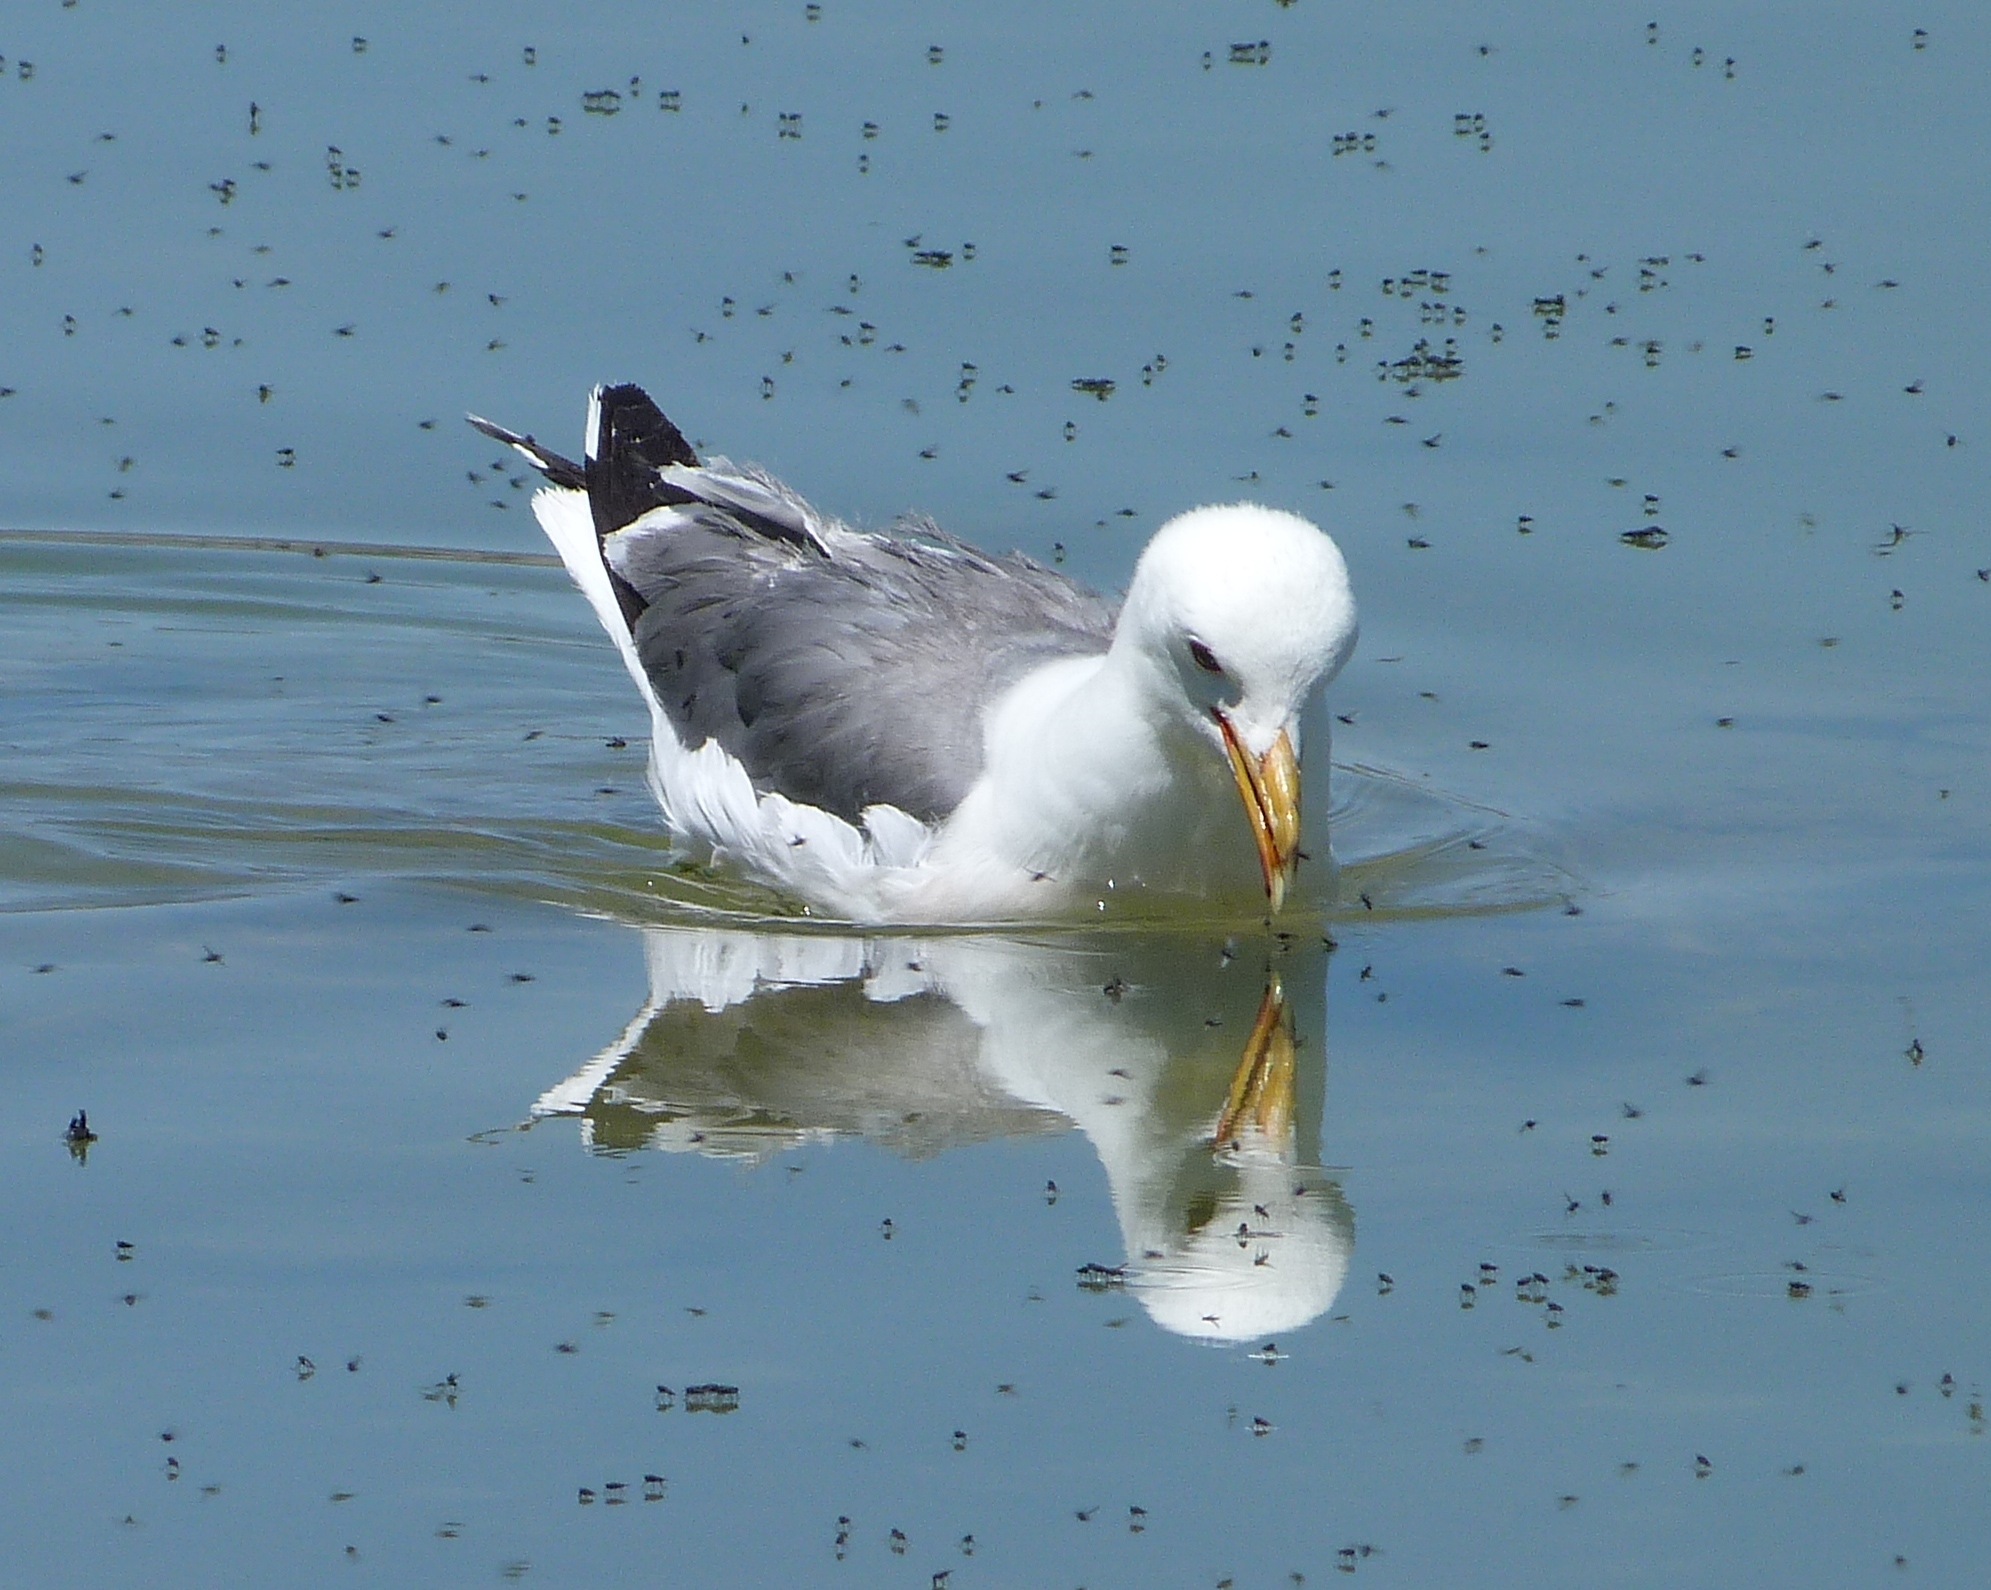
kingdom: Animalia
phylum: Chordata
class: Aves
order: Charadriiformes
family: Laridae
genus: Larus
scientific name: Larus californicus
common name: California gull
